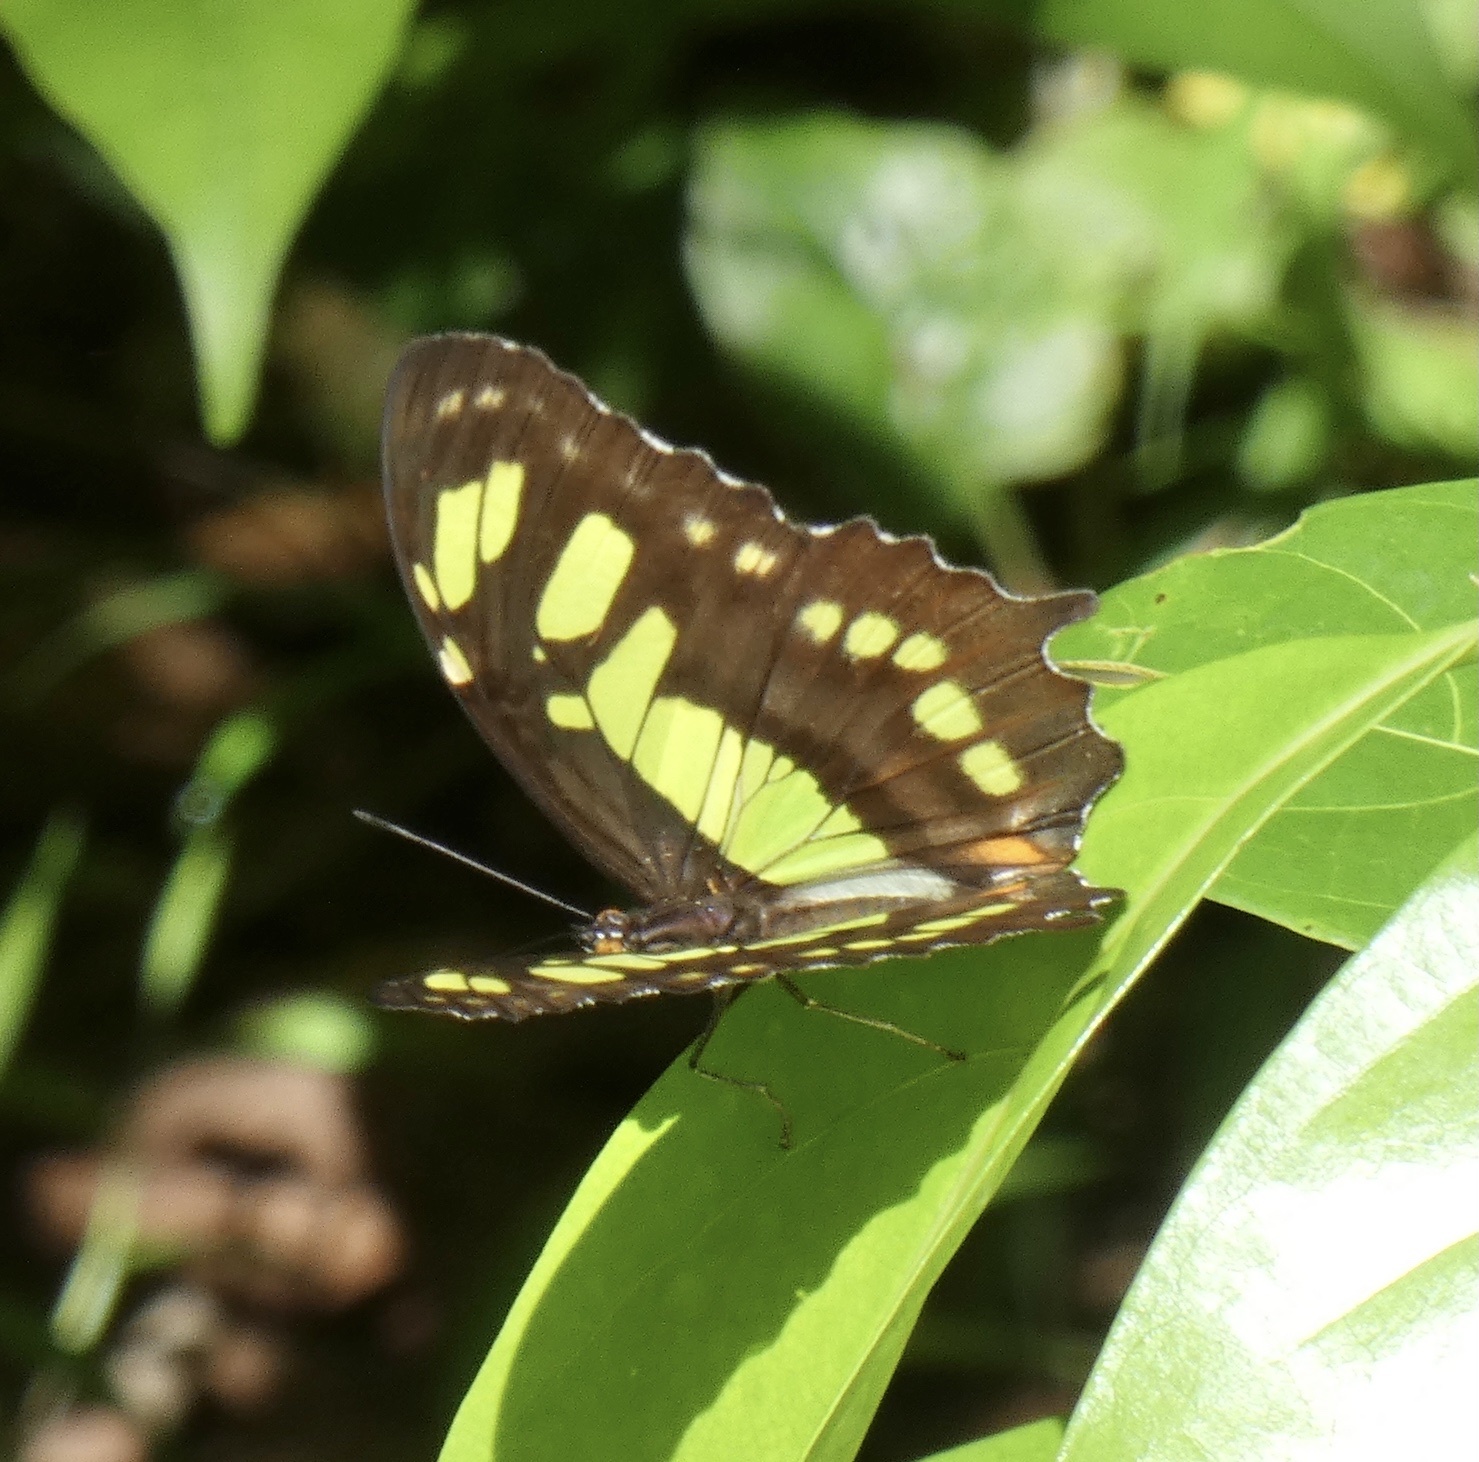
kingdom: Animalia
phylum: Arthropoda
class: Insecta
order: Lepidoptera
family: Nymphalidae
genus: Siproeta
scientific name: Siproeta stelenes
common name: Malachite
